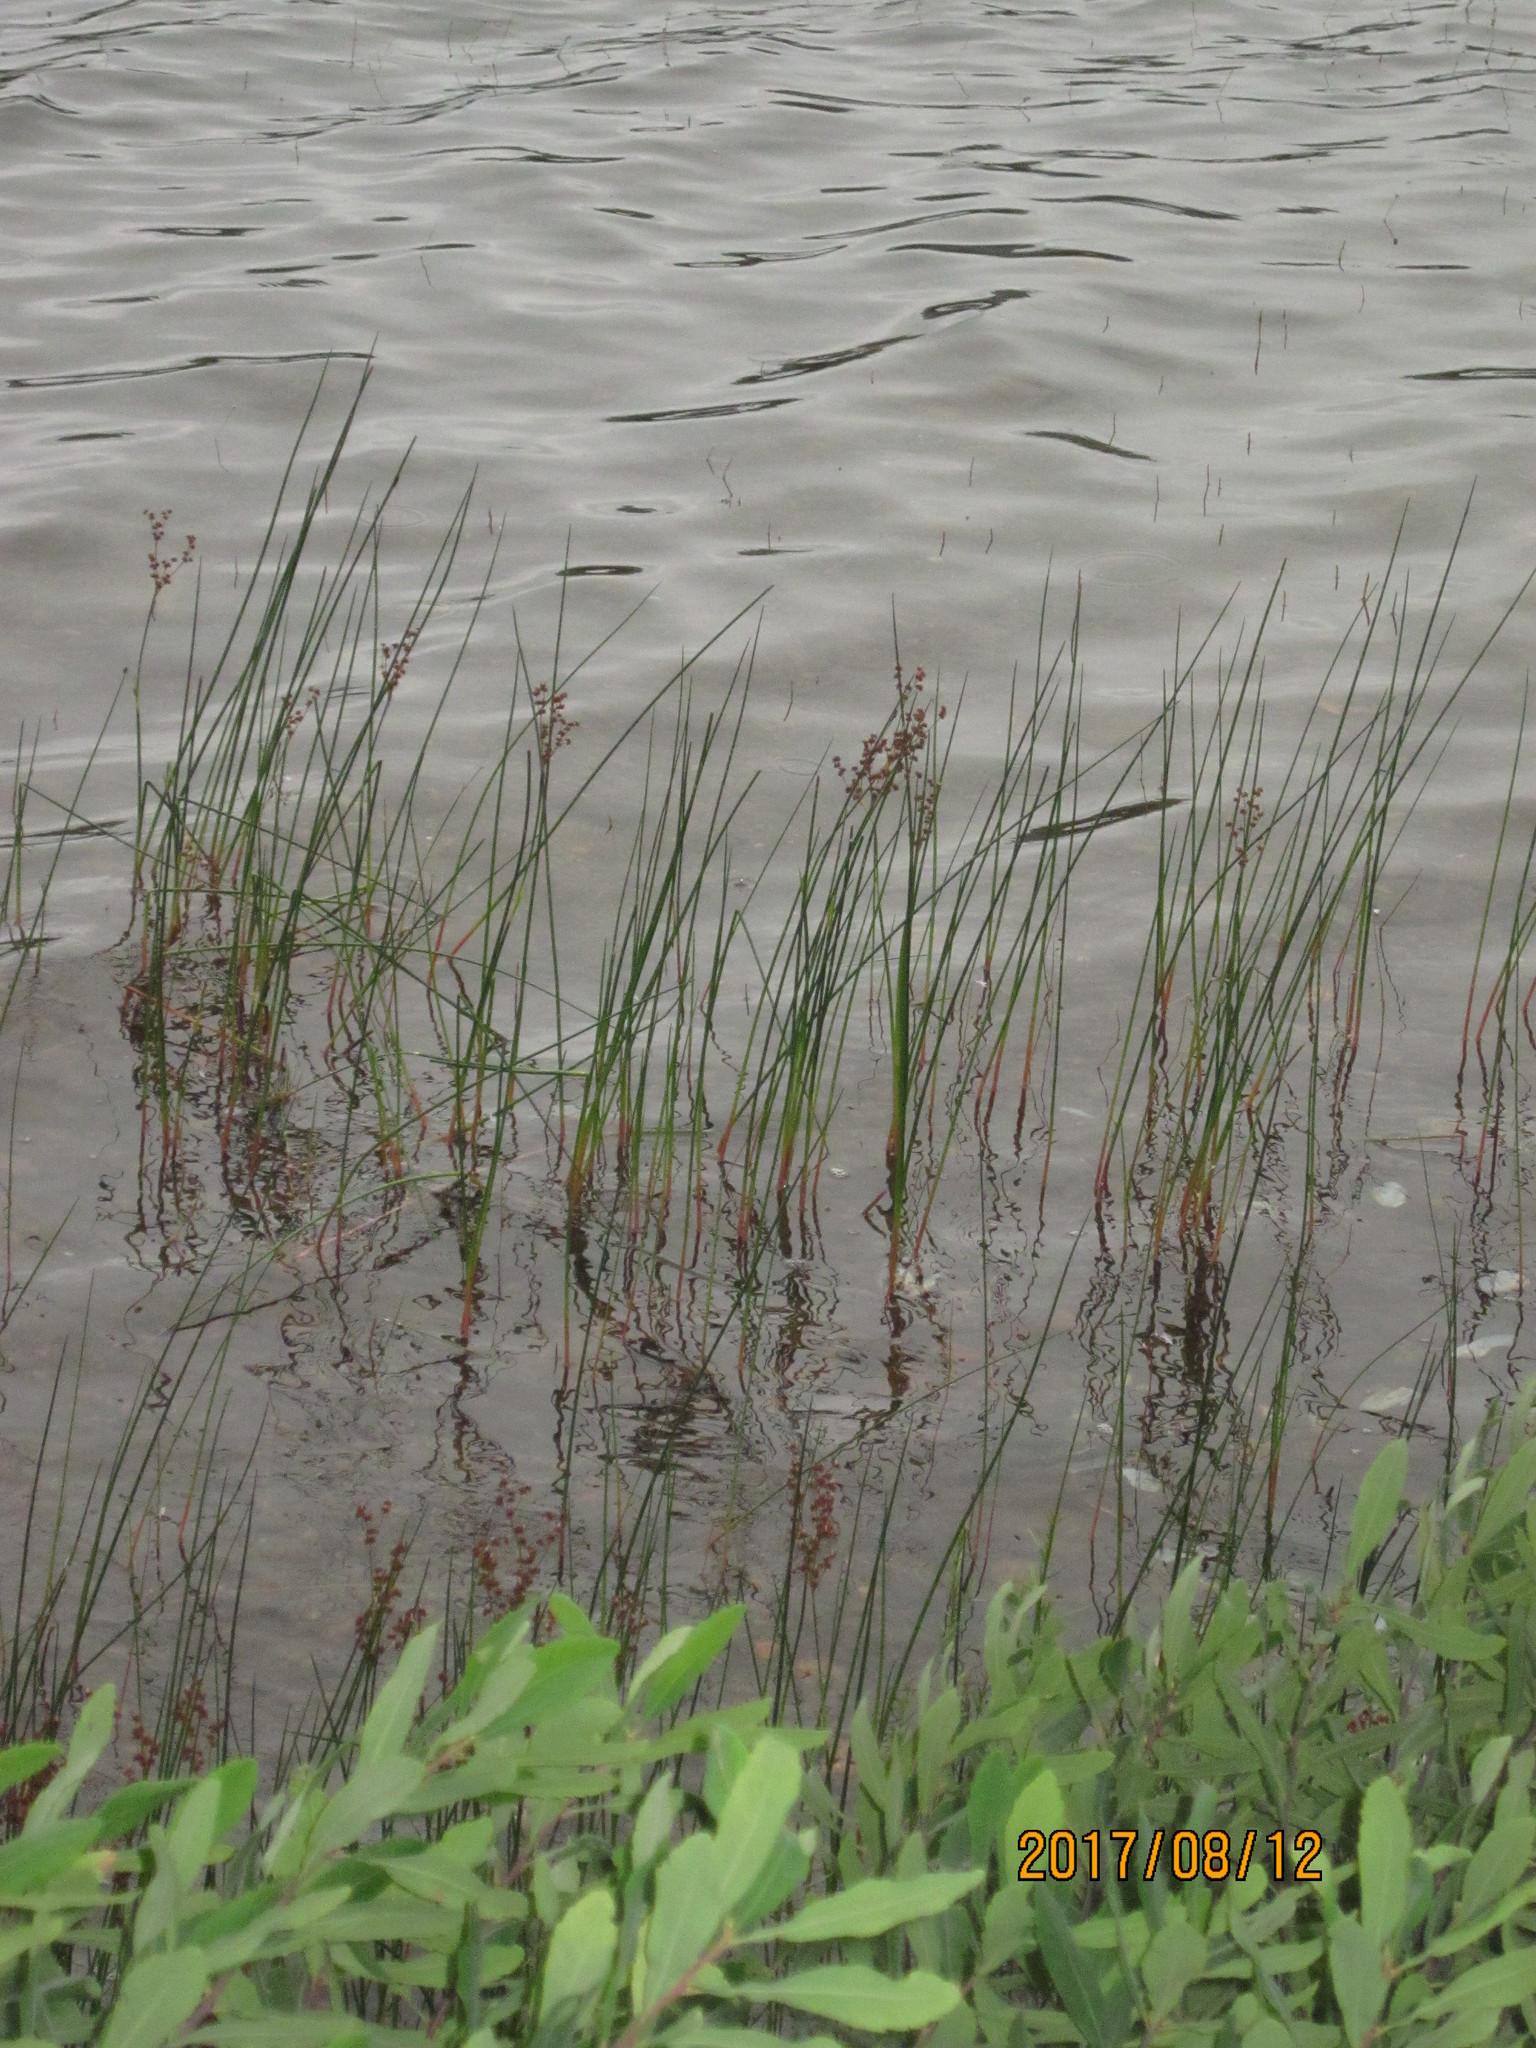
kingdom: Plantae
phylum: Tracheophyta
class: Liliopsida
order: Poales
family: Juncaceae
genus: Juncus
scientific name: Juncus militaris
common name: Bayonet rush
